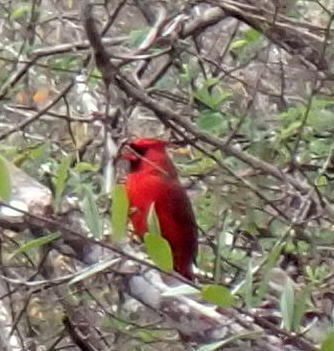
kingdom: Animalia
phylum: Chordata
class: Aves
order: Passeriformes
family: Cardinalidae
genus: Cardinalis
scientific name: Cardinalis cardinalis
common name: Northern cardinal
